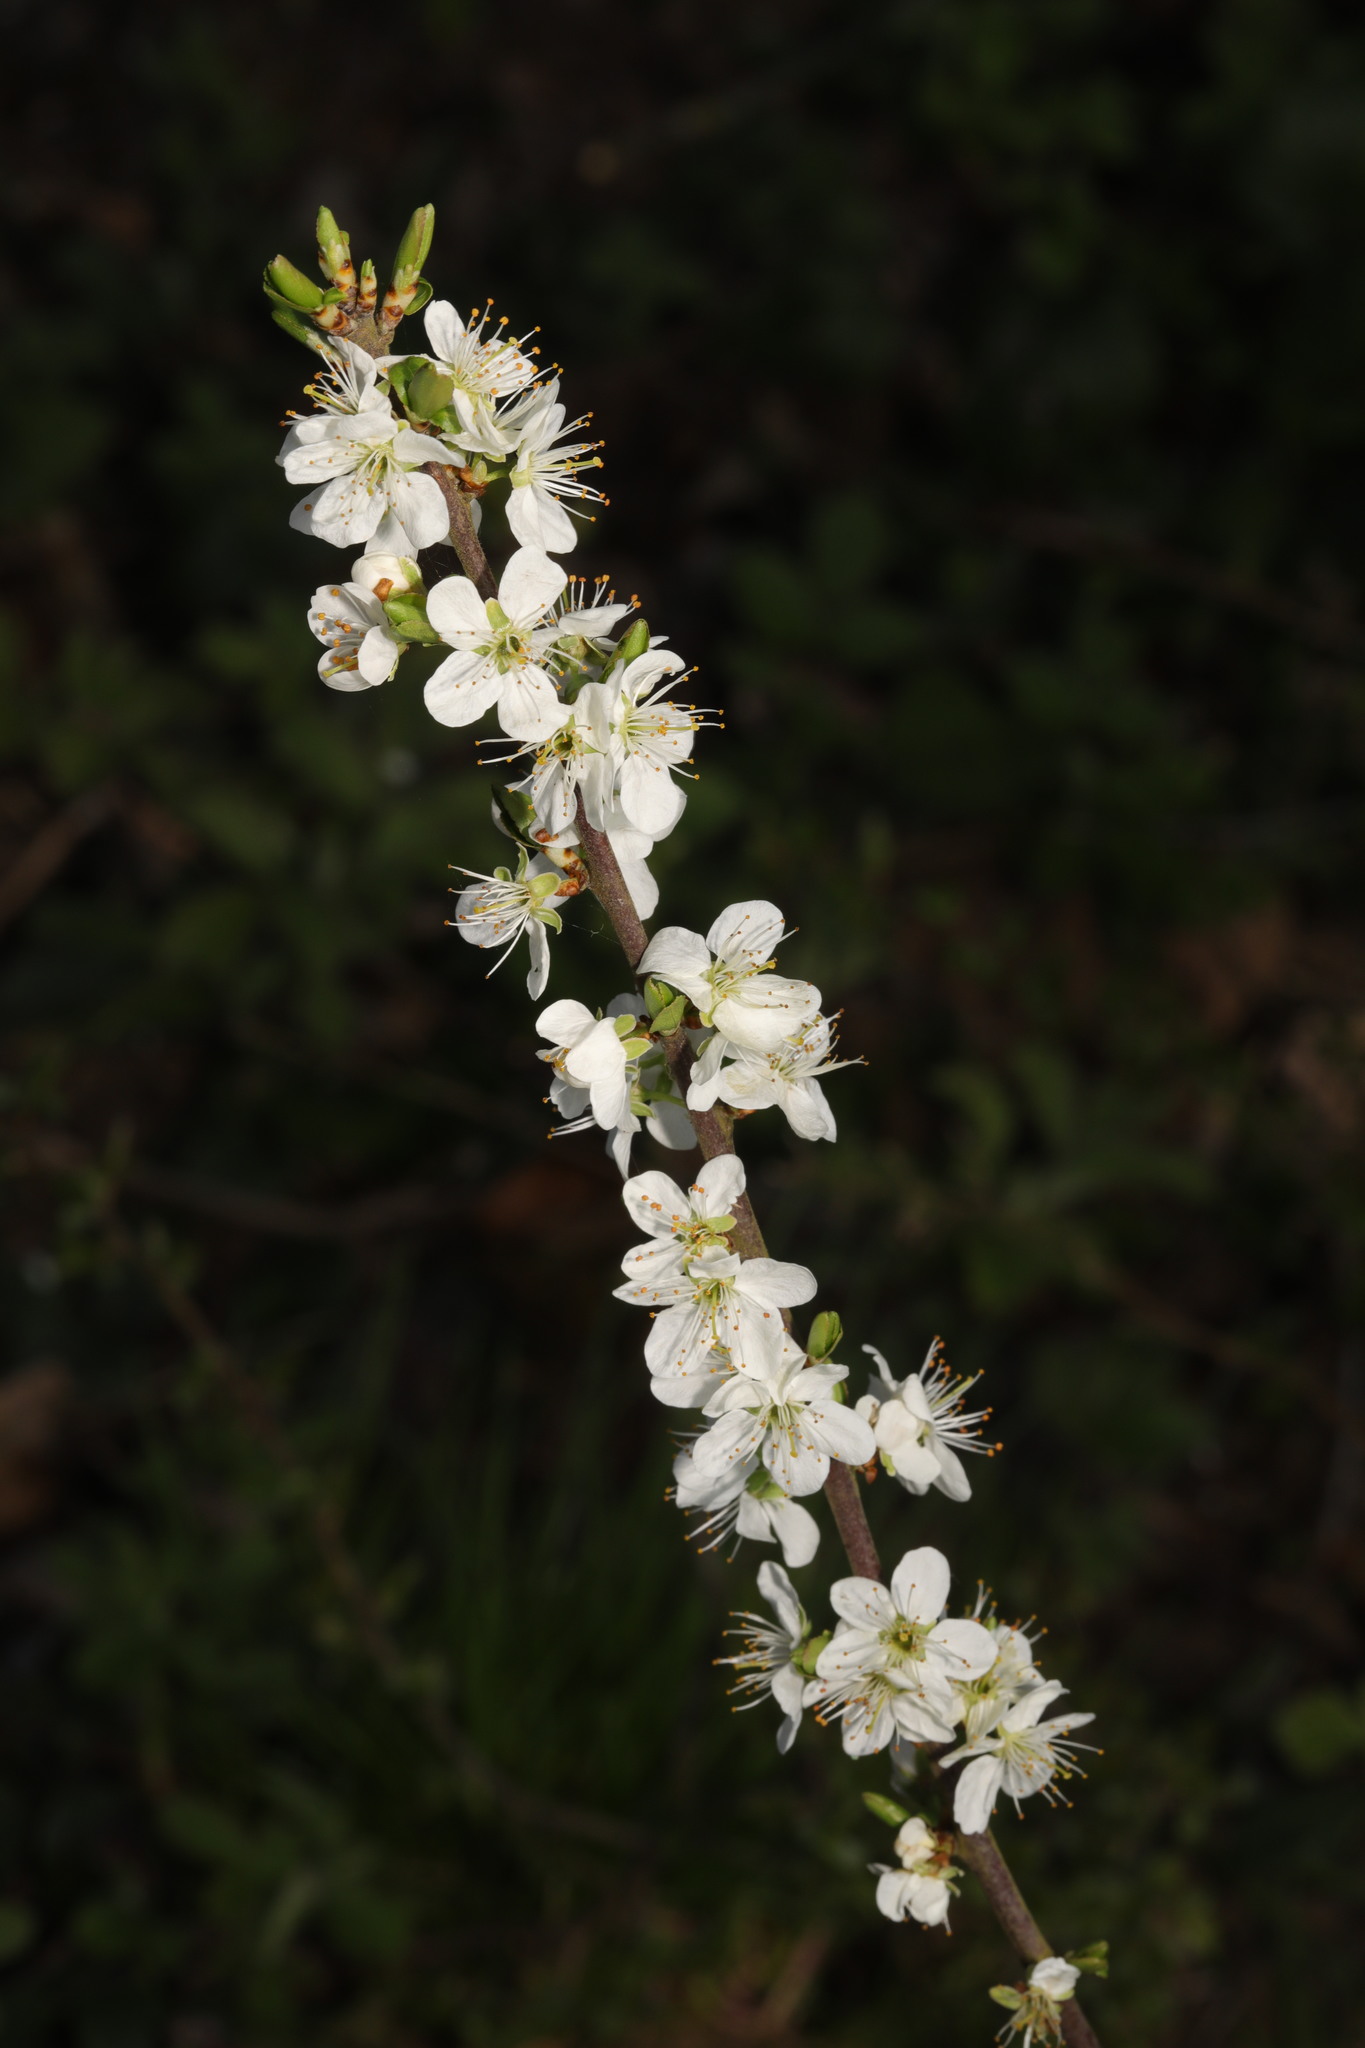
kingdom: Plantae
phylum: Tracheophyta
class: Magnoliopsida
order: Rosales
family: Rosaceae
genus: Prunus
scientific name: Prunus spinosa
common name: Blackthorn
